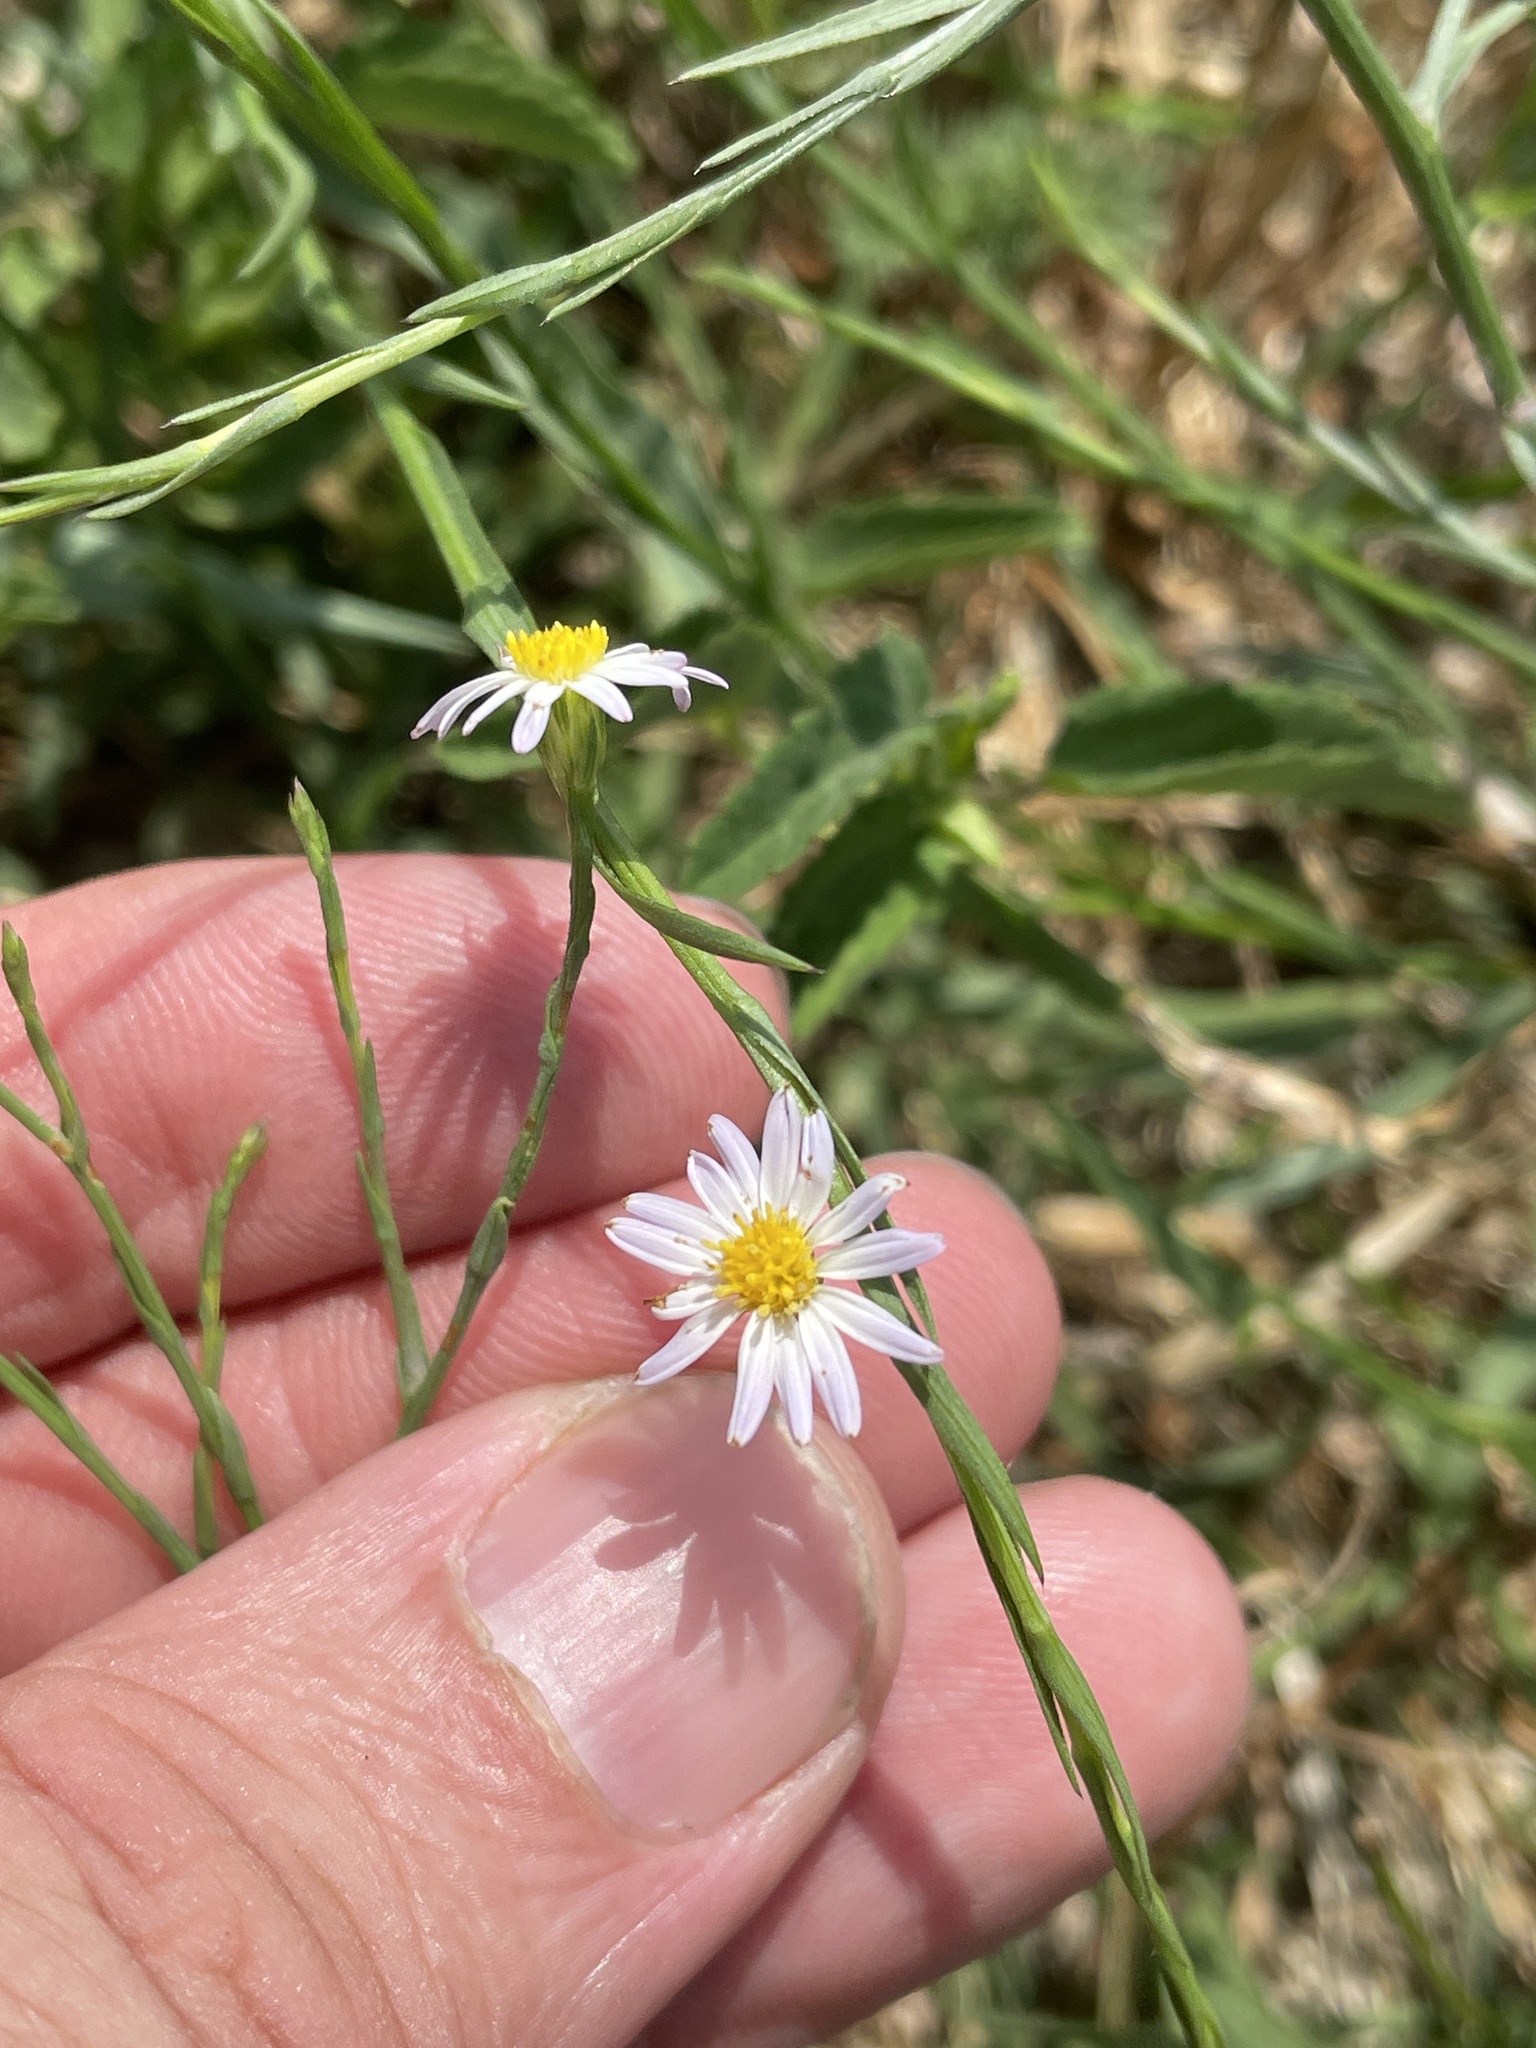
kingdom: Plantae
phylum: Tracheophyta
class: Magnoliopsida
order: Asterales
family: Asteraceae
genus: Symphyotrichum
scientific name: Symphyotrichum divaricatum
